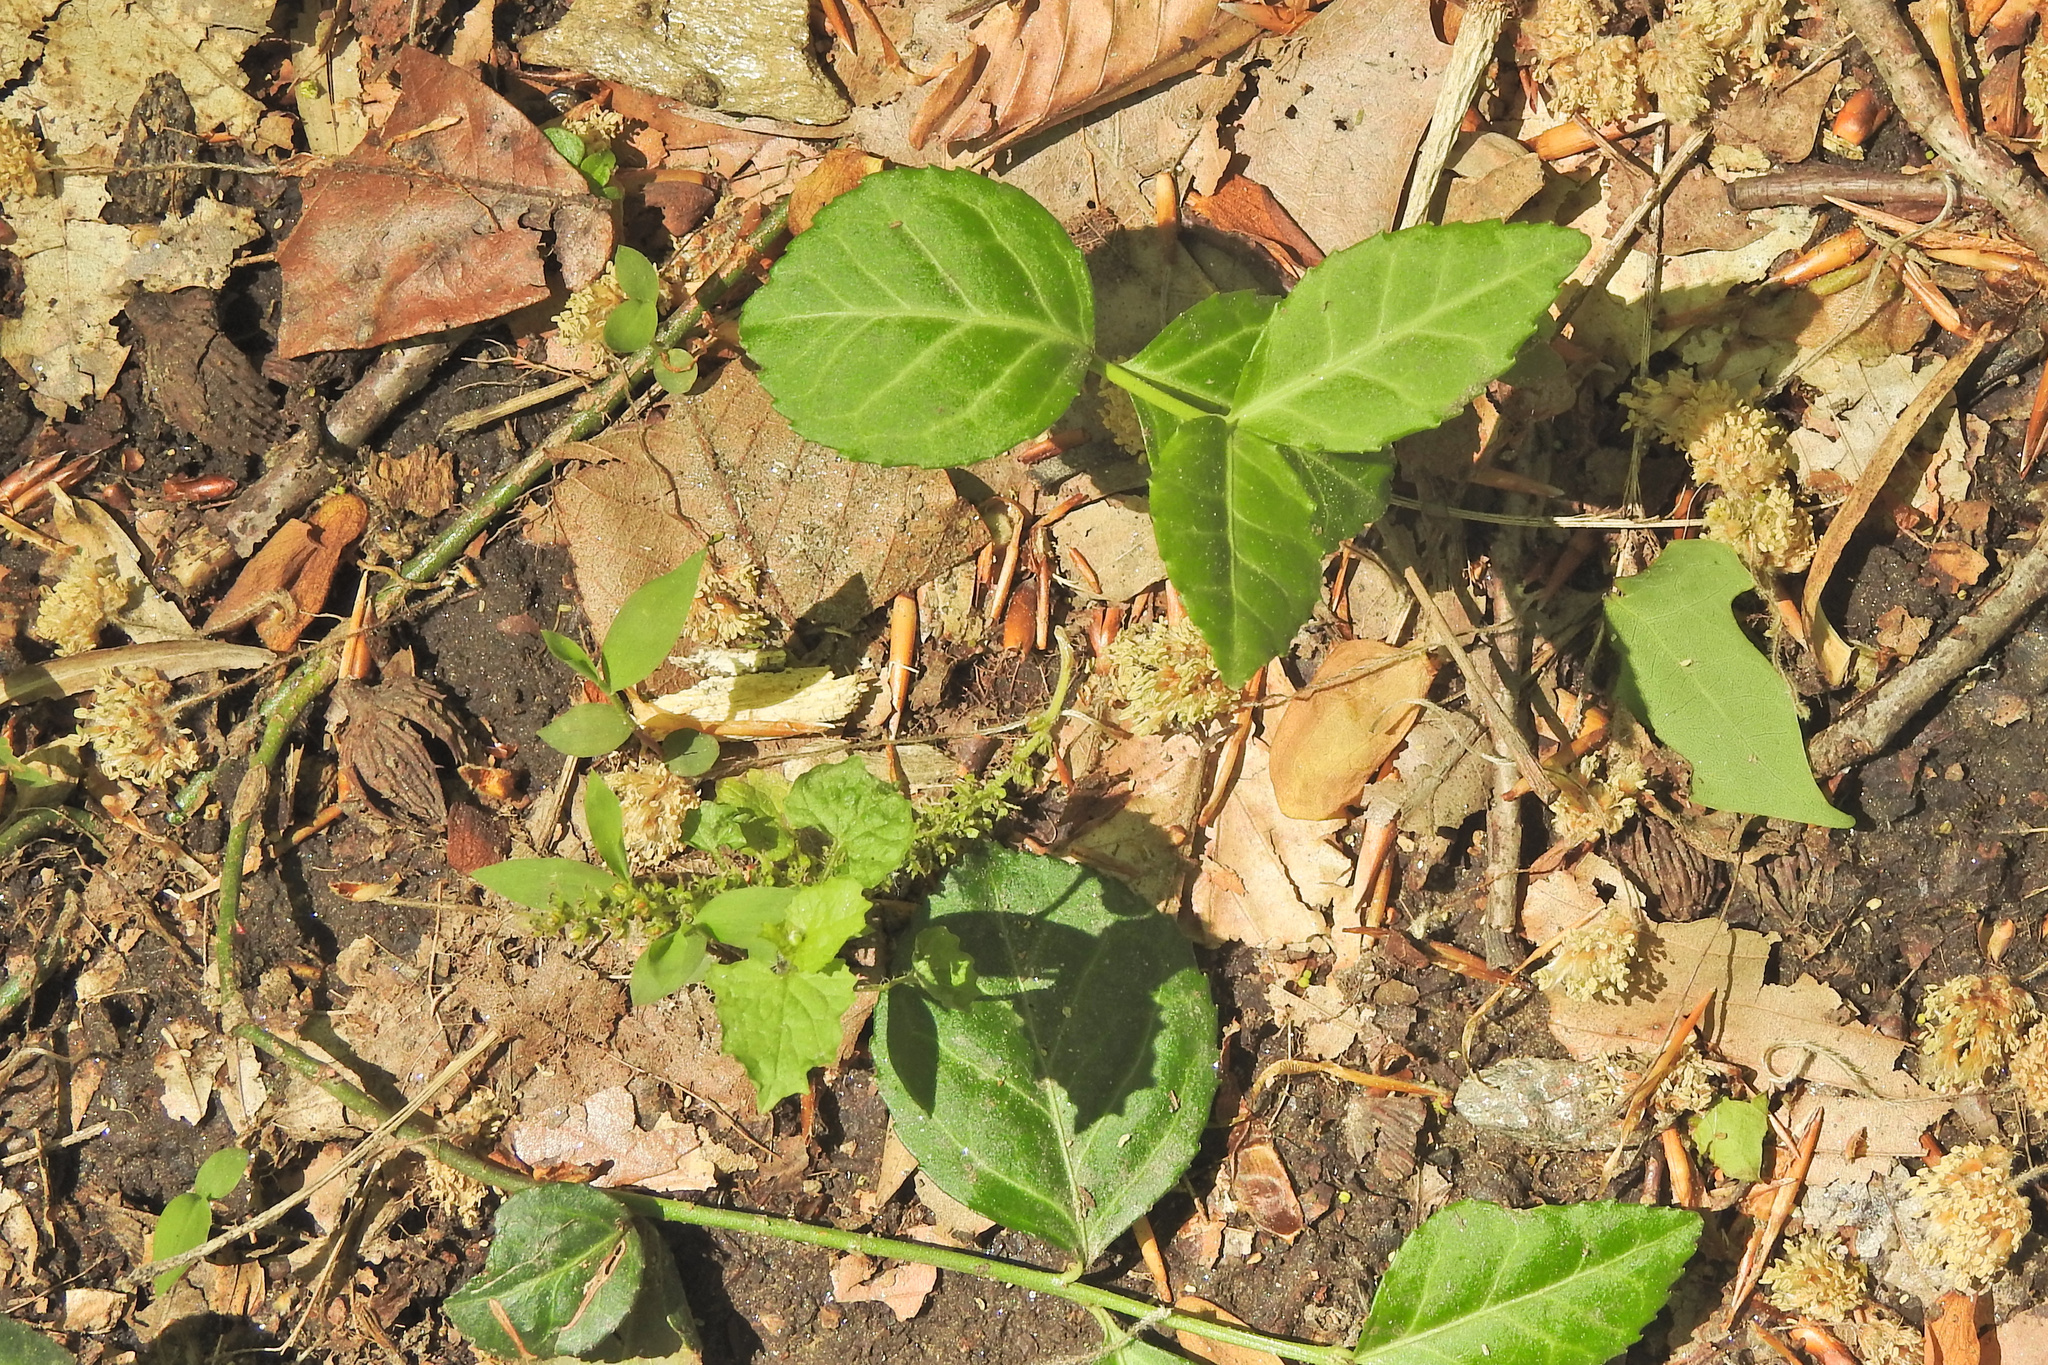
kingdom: Plantae
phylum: Tracheophyta
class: Magnoliopsida
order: Celastrales
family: Celastraceae
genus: Euonymus
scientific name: Euonymus fortunei
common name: Climbing euonymus
